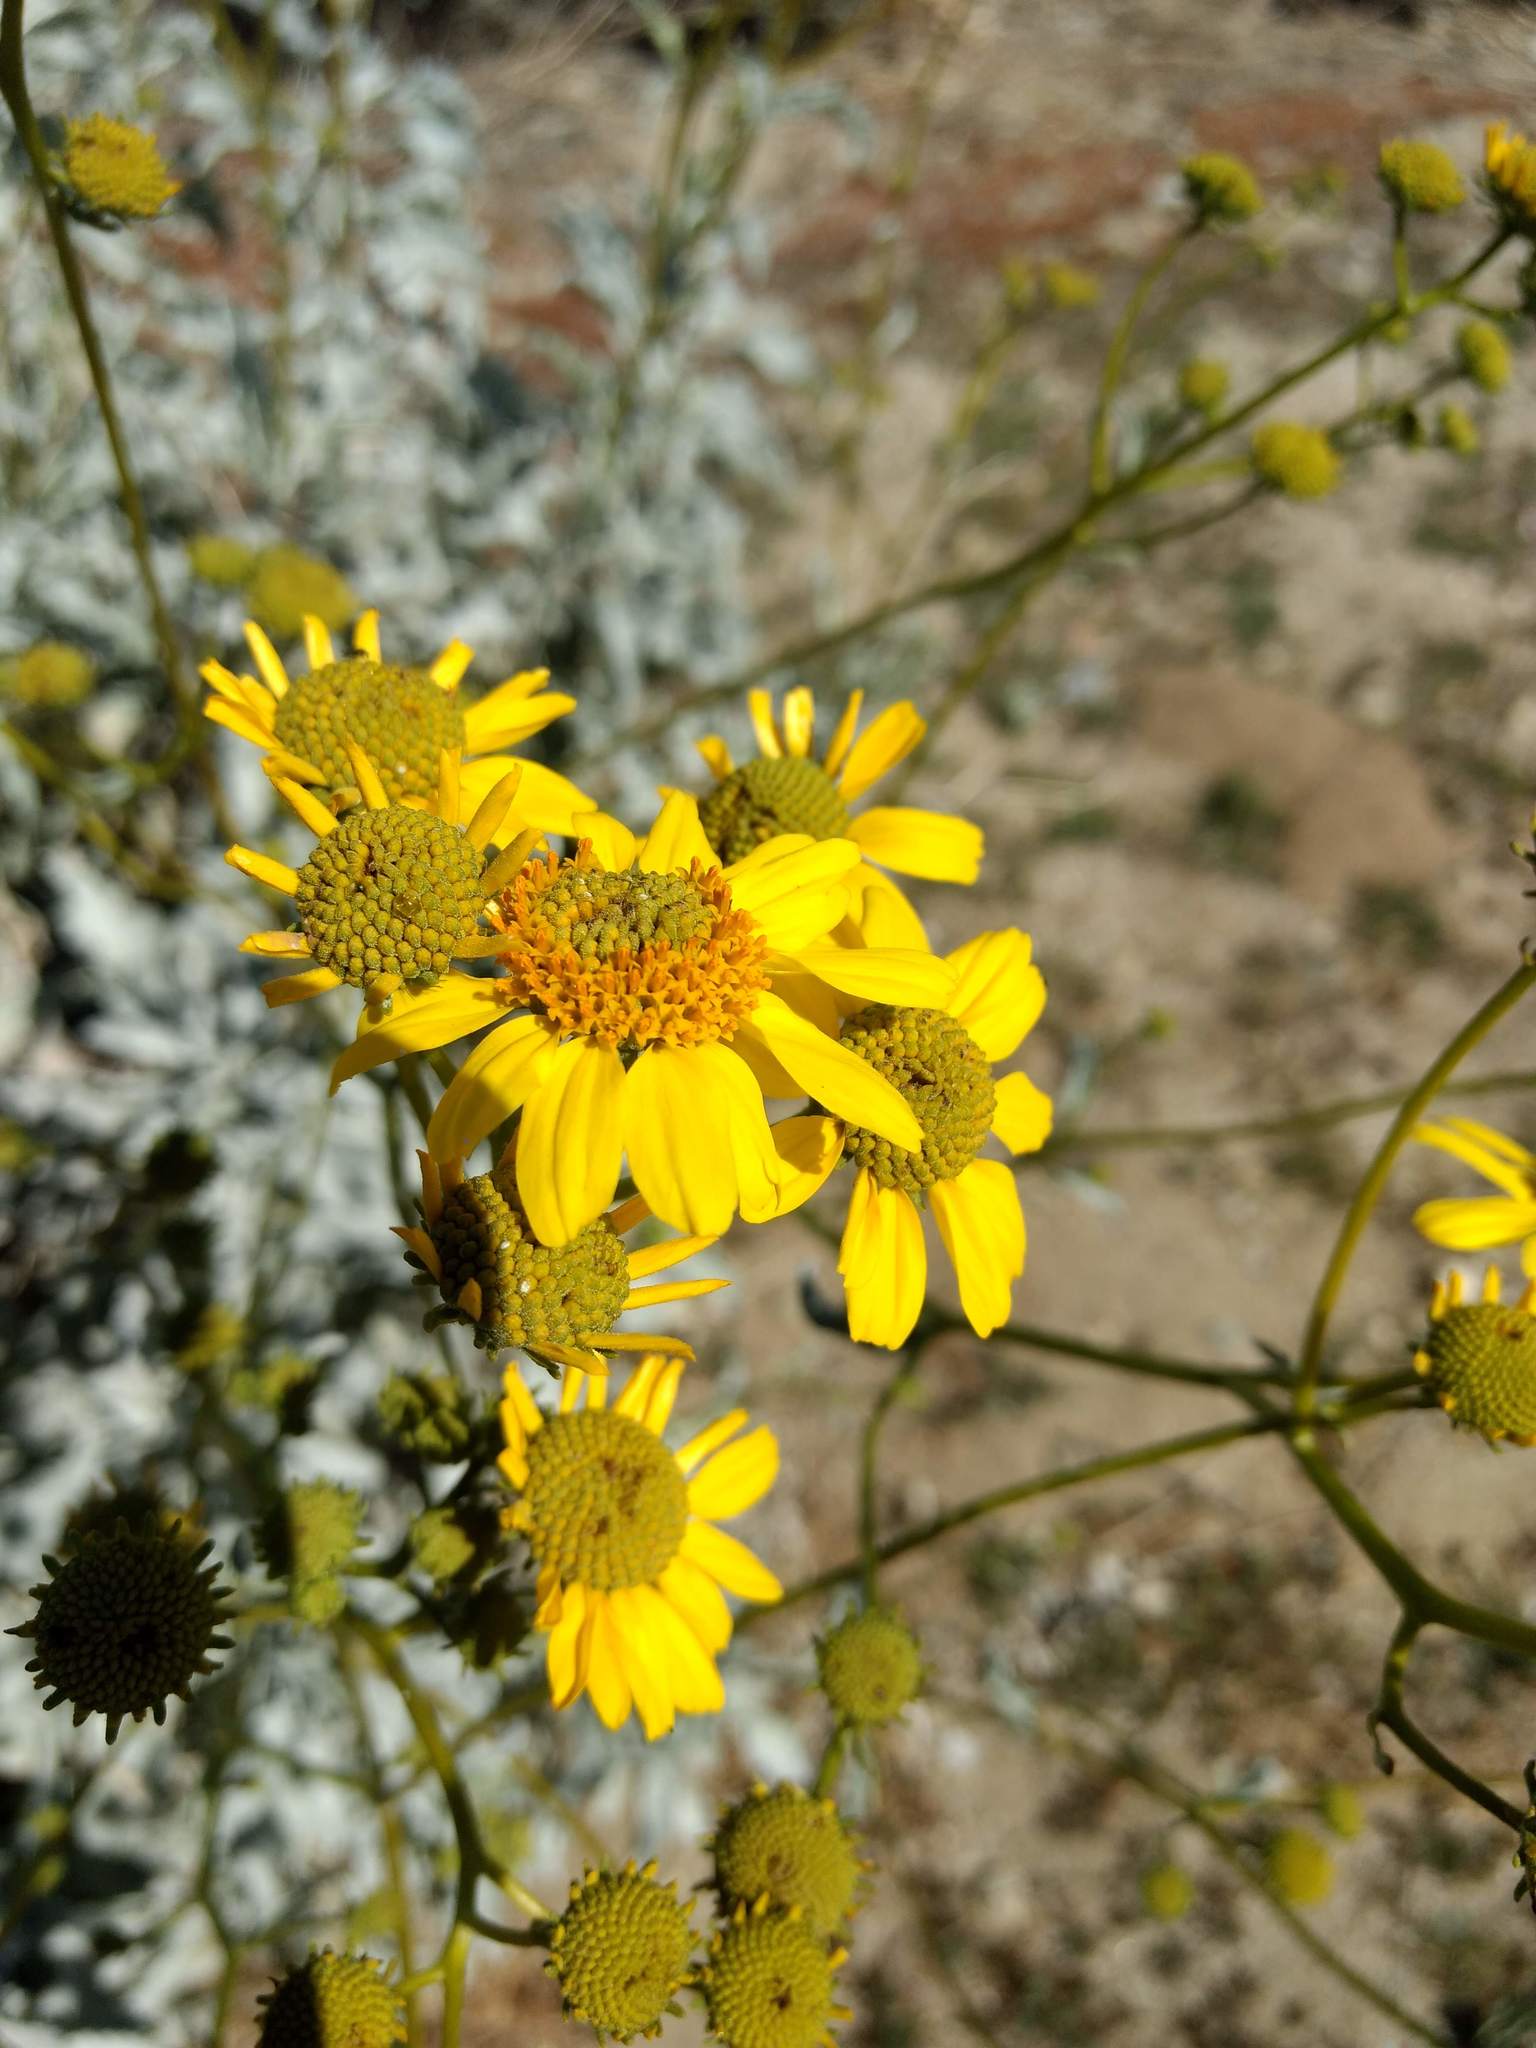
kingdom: Plantae
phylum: Tracheophyta
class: Magnoliopsida
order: Asterales
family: Asteraceae
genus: Encelia
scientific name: Encelia farinosa
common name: Brittlebush
